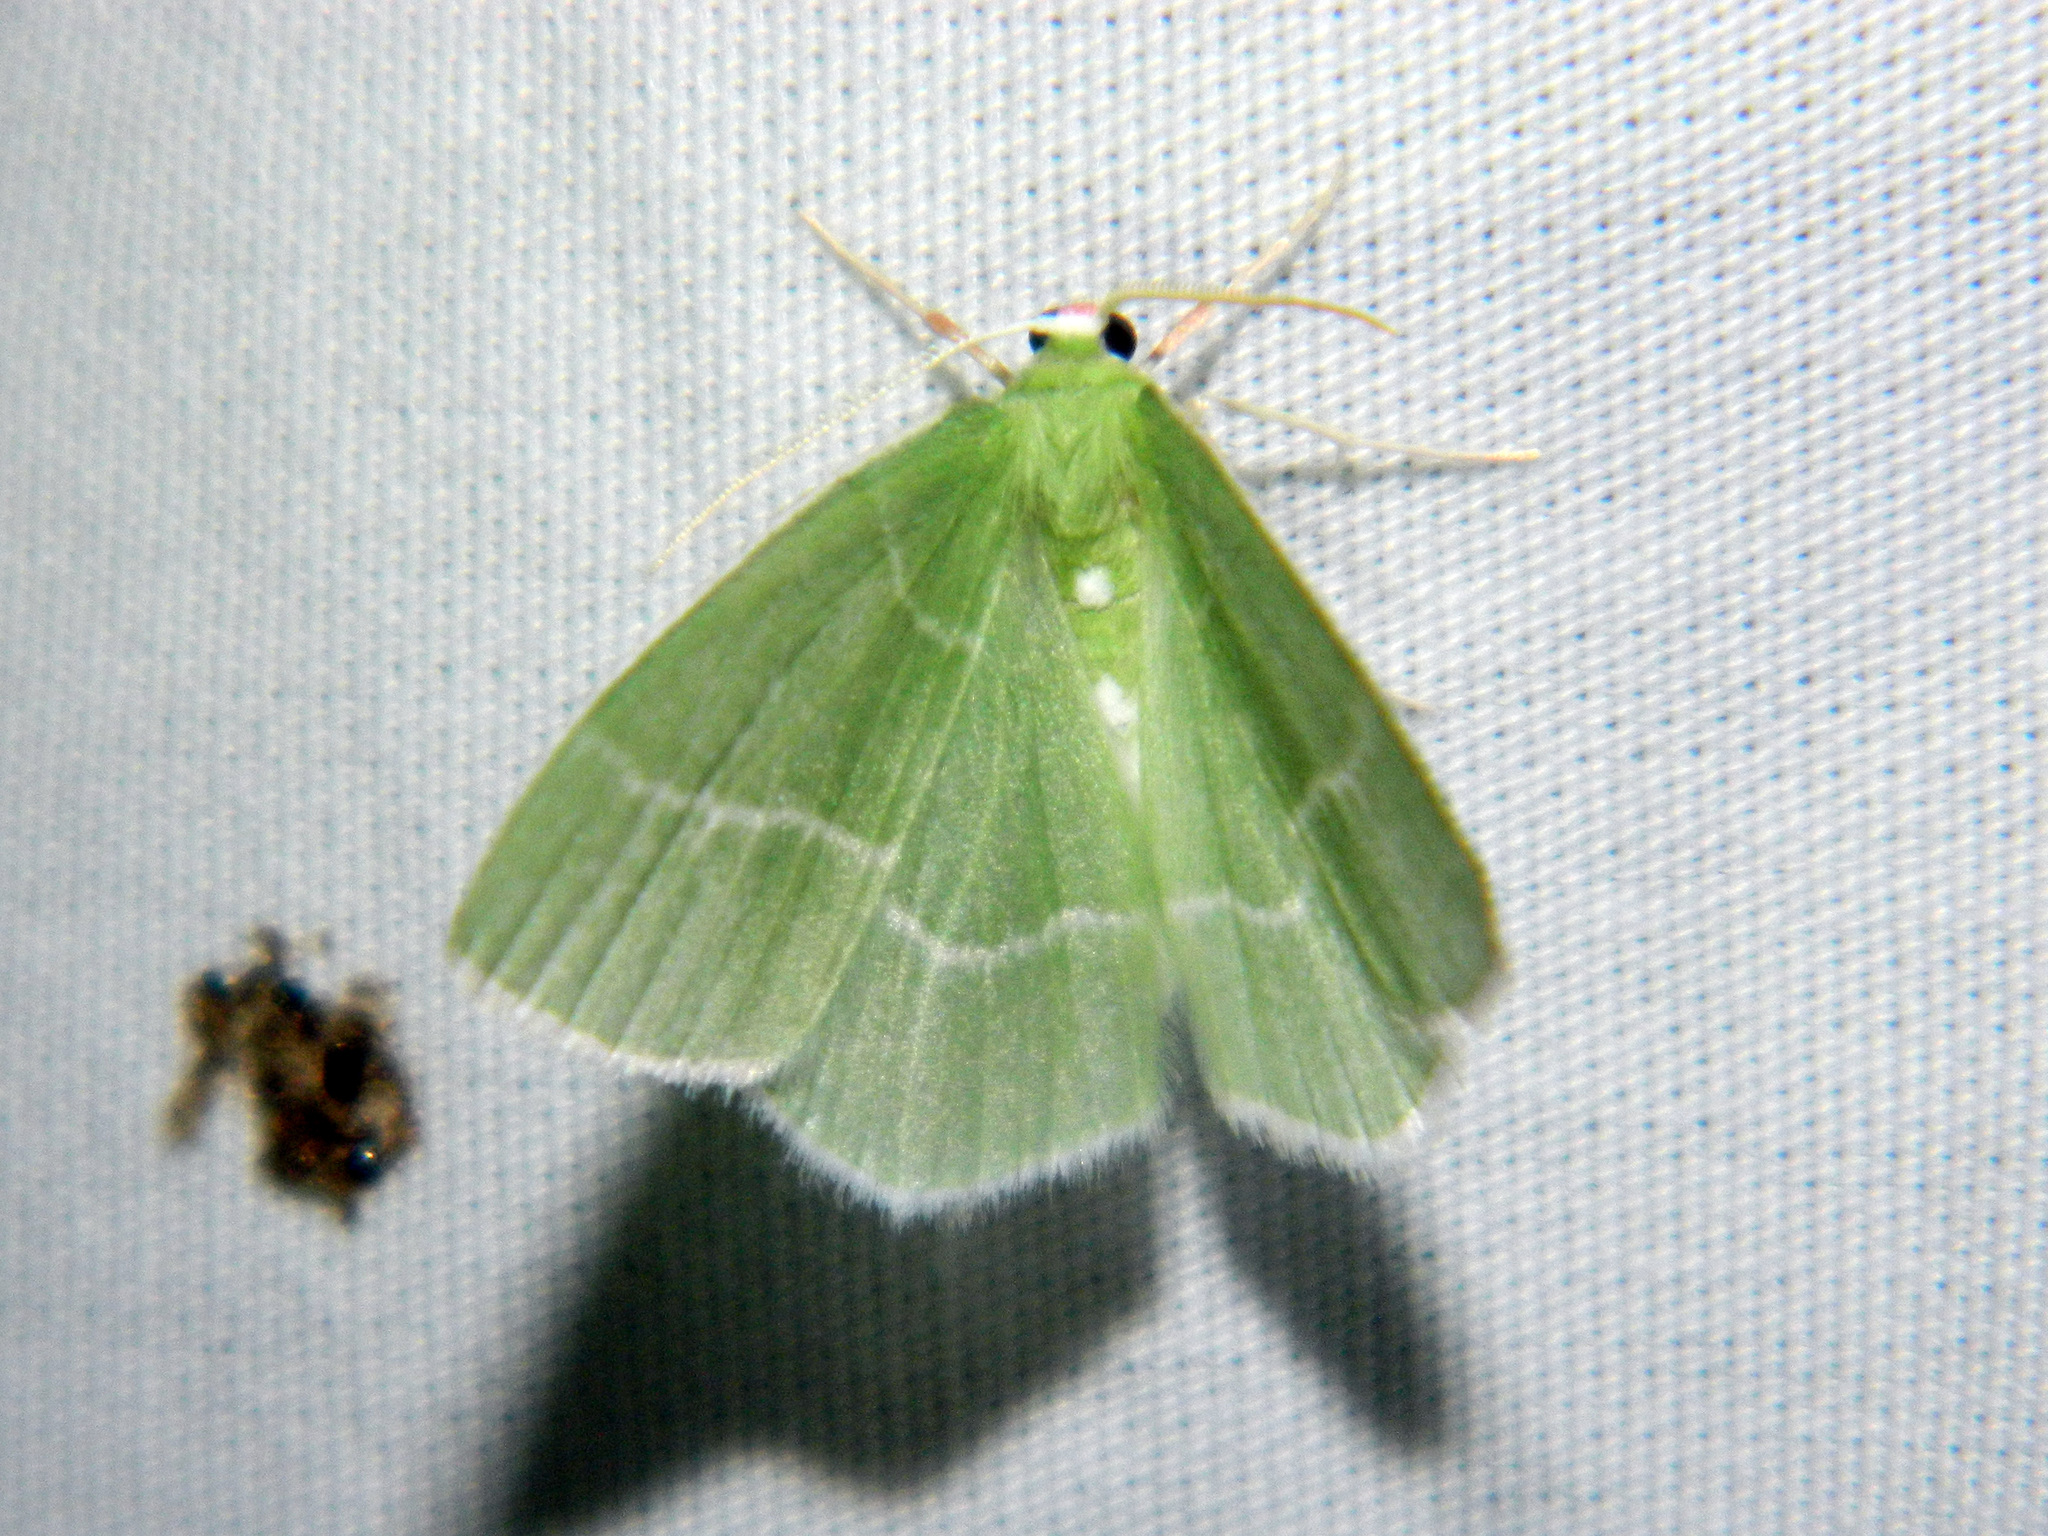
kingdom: Animalia
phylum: Arthropoda
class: Insecta
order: Lepidoptera
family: Geometridae
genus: Nemoria
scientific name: Nemoria mimosaria
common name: White-fringed emerald
